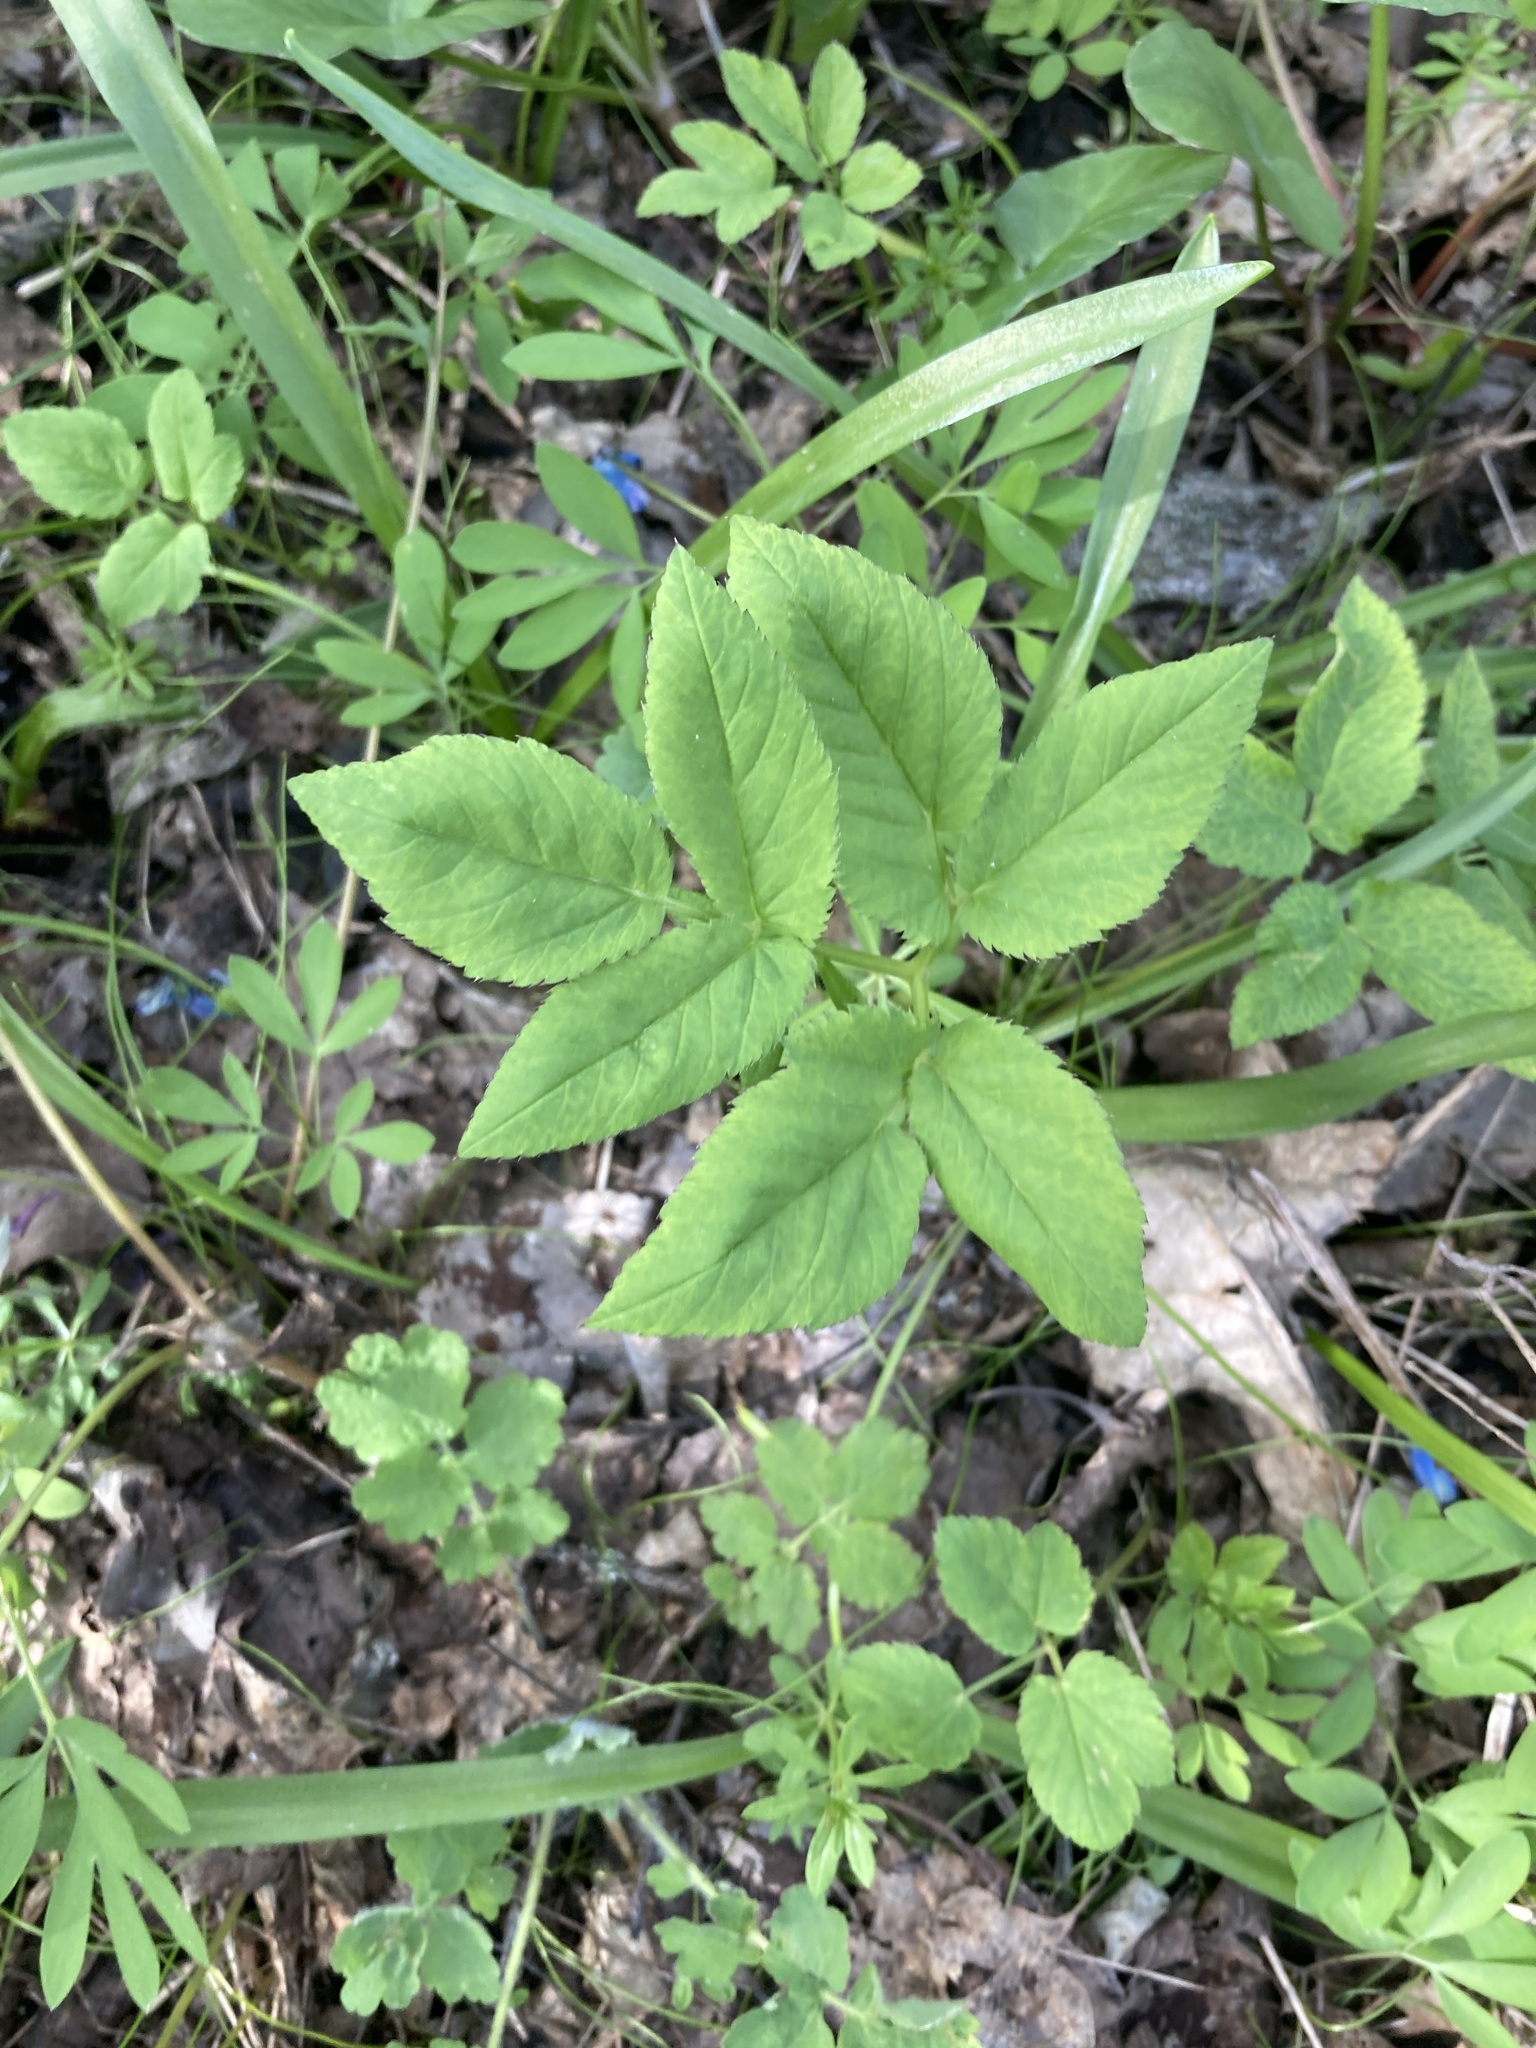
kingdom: Plantae
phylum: Tracheophyta
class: Magnoliopsida
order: Apiales
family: Apiaceae
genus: Aegopodium
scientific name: Aegopodium podagraria
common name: Ground-elder
